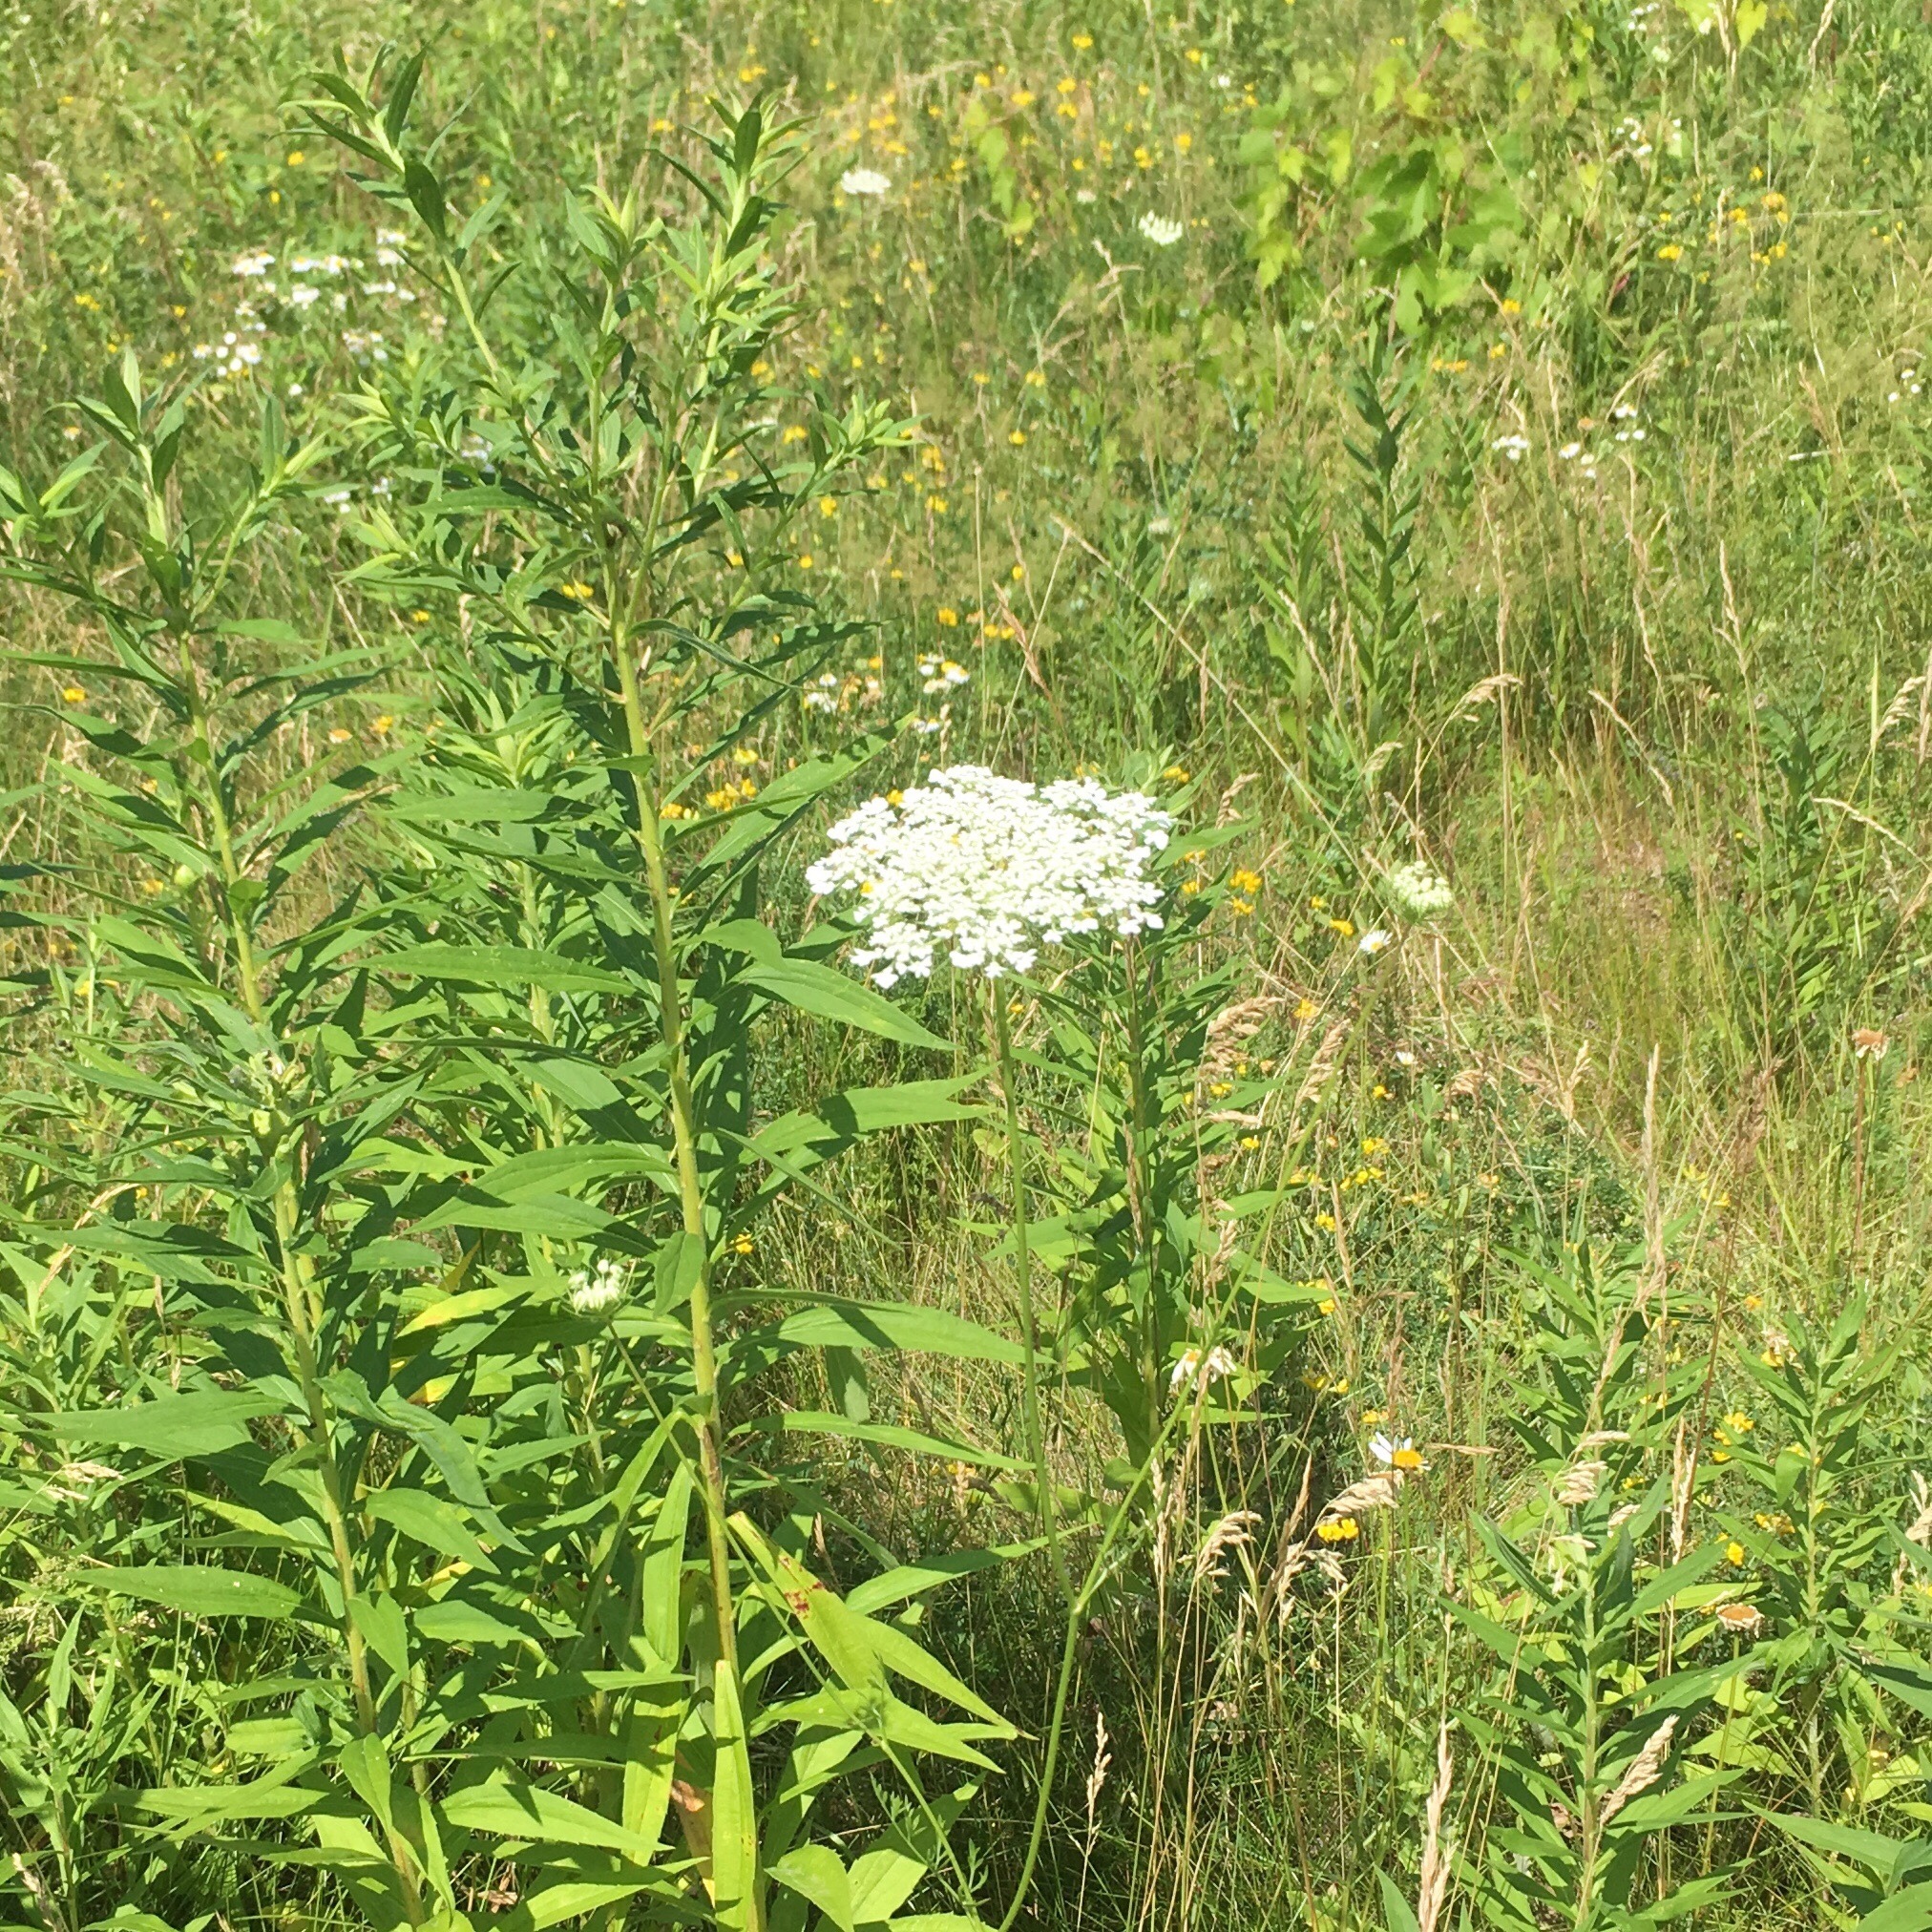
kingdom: Plantae
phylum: Tracheophyta
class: Magnoliopsida
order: Apiales
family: Apiaceae
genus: Daucus
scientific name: Daucus carota
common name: Wild carrot
